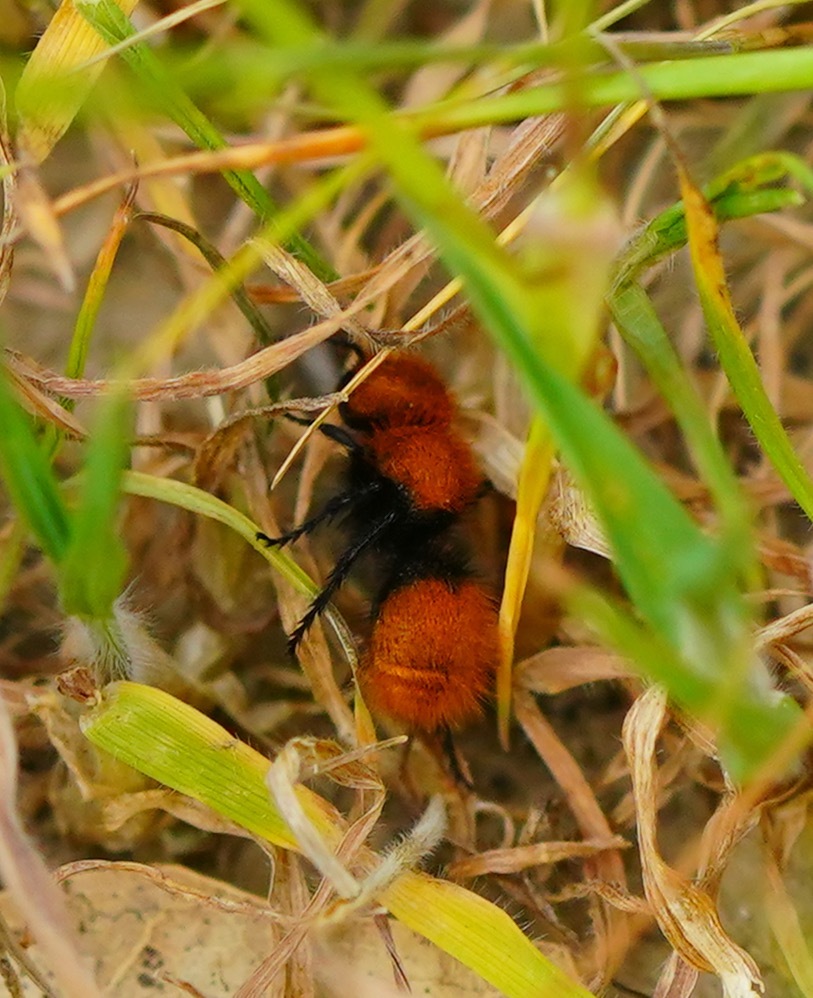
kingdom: Animalia
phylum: Arthropoda
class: Insecta
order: Hymenoptera
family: Mutillidae
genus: Dasymutilla
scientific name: Dasymutilla
